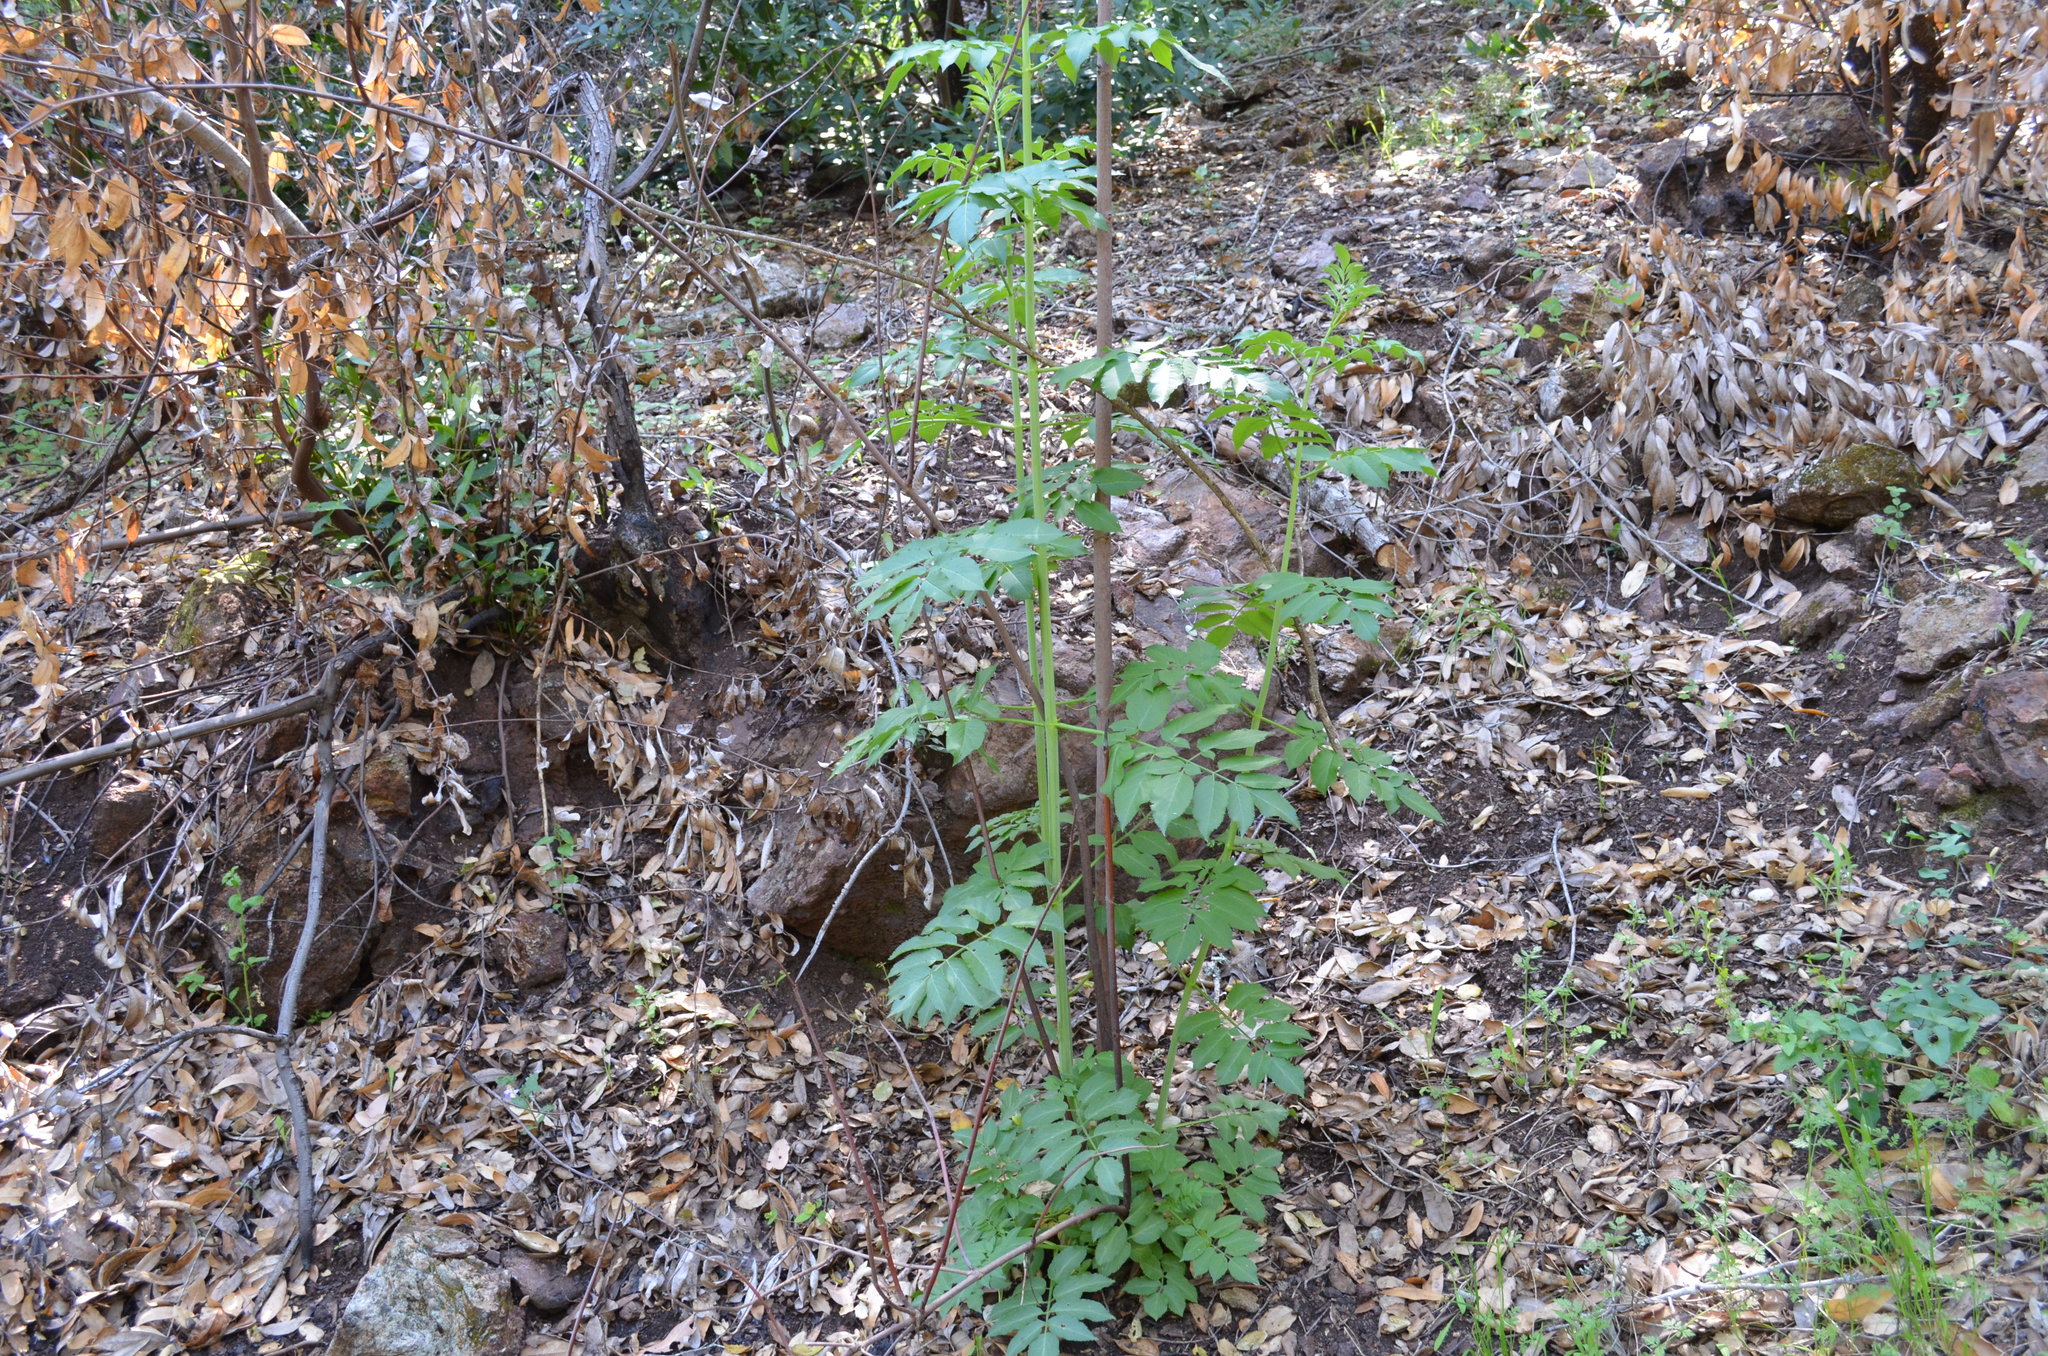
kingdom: Plantae
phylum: Tracheophyta
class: Magnoliopsida
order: Dipsacales
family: Viburnaceae
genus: Sambucus
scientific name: Sambucus cerulea
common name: Blue elder
